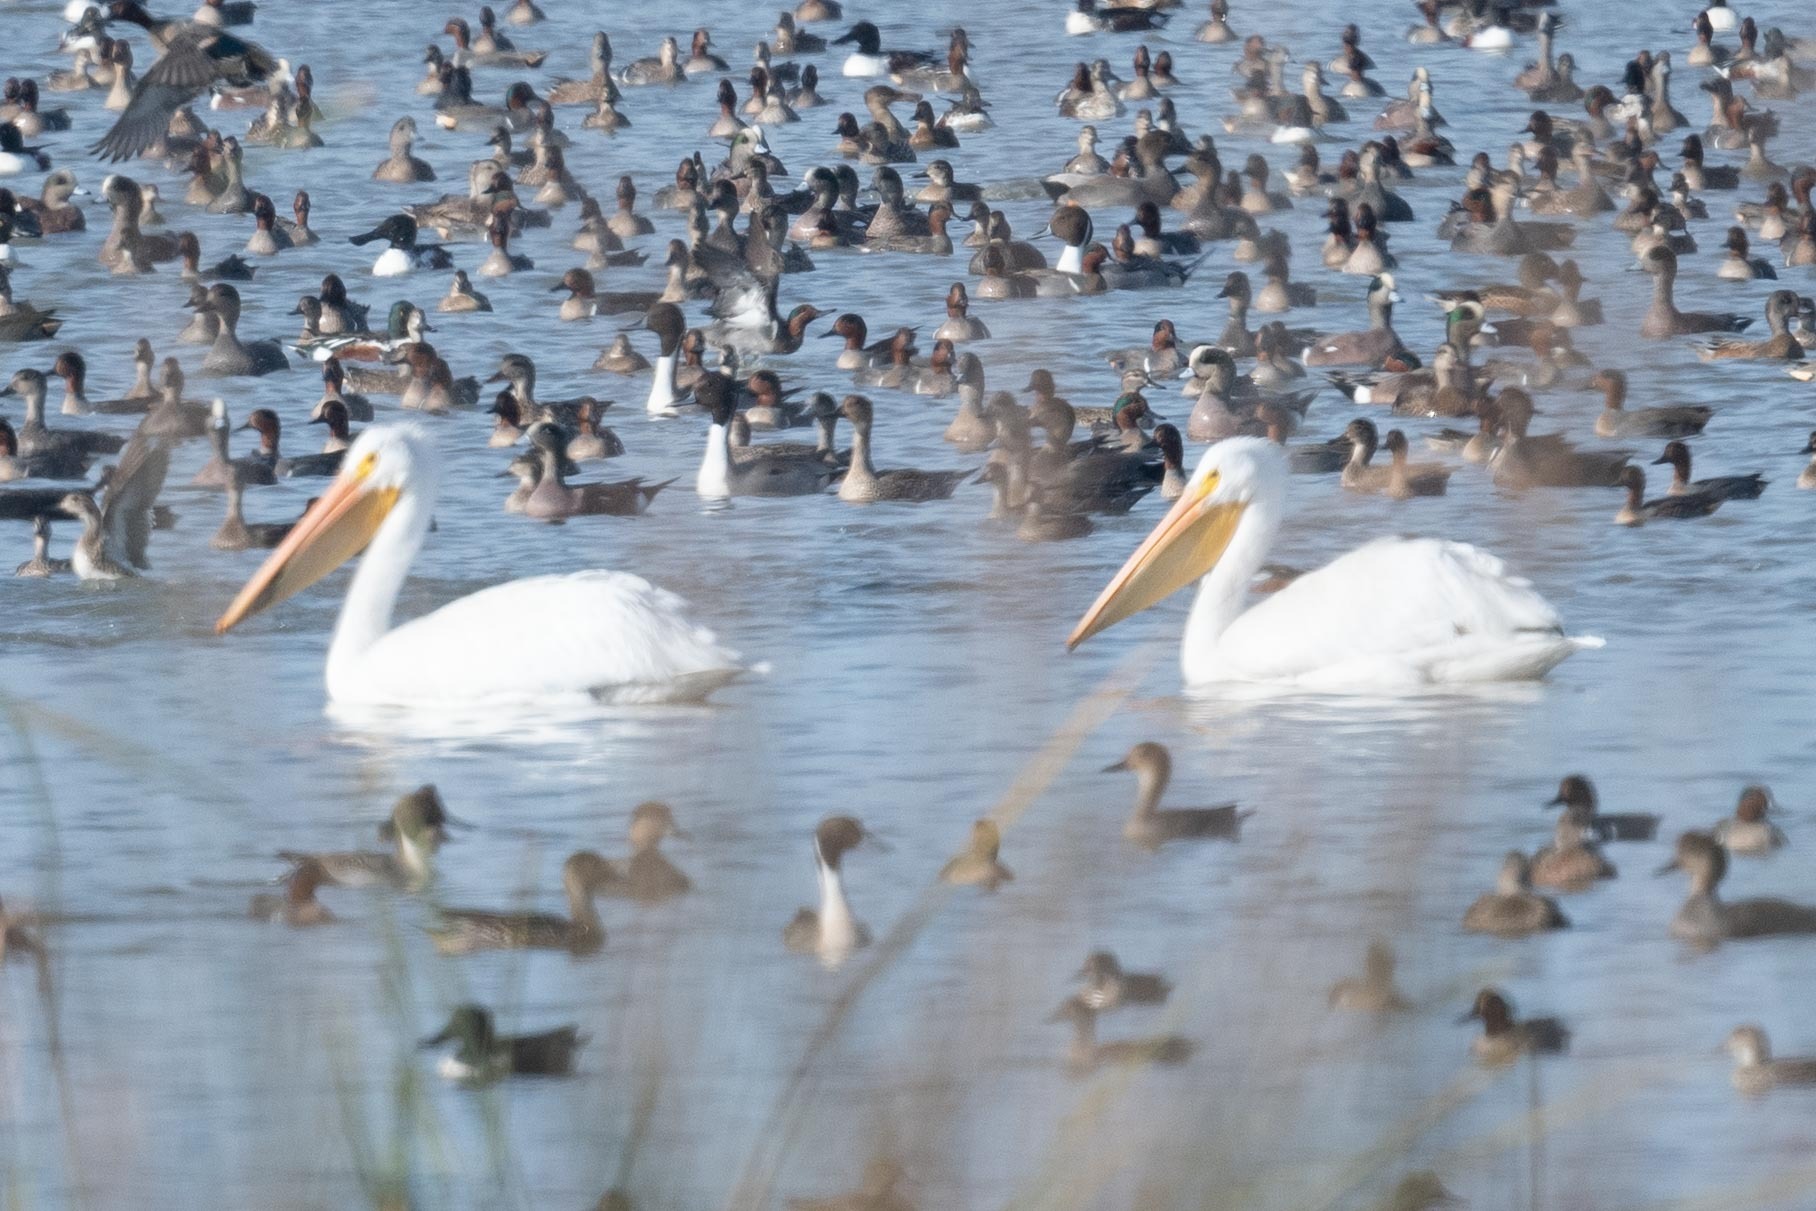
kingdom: Animalia
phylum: Chordata
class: Aves
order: Pelecaniformes
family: Pelecanidae
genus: Pelecanus
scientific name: Pelecanus erythrorhynchos
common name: American white pelican
